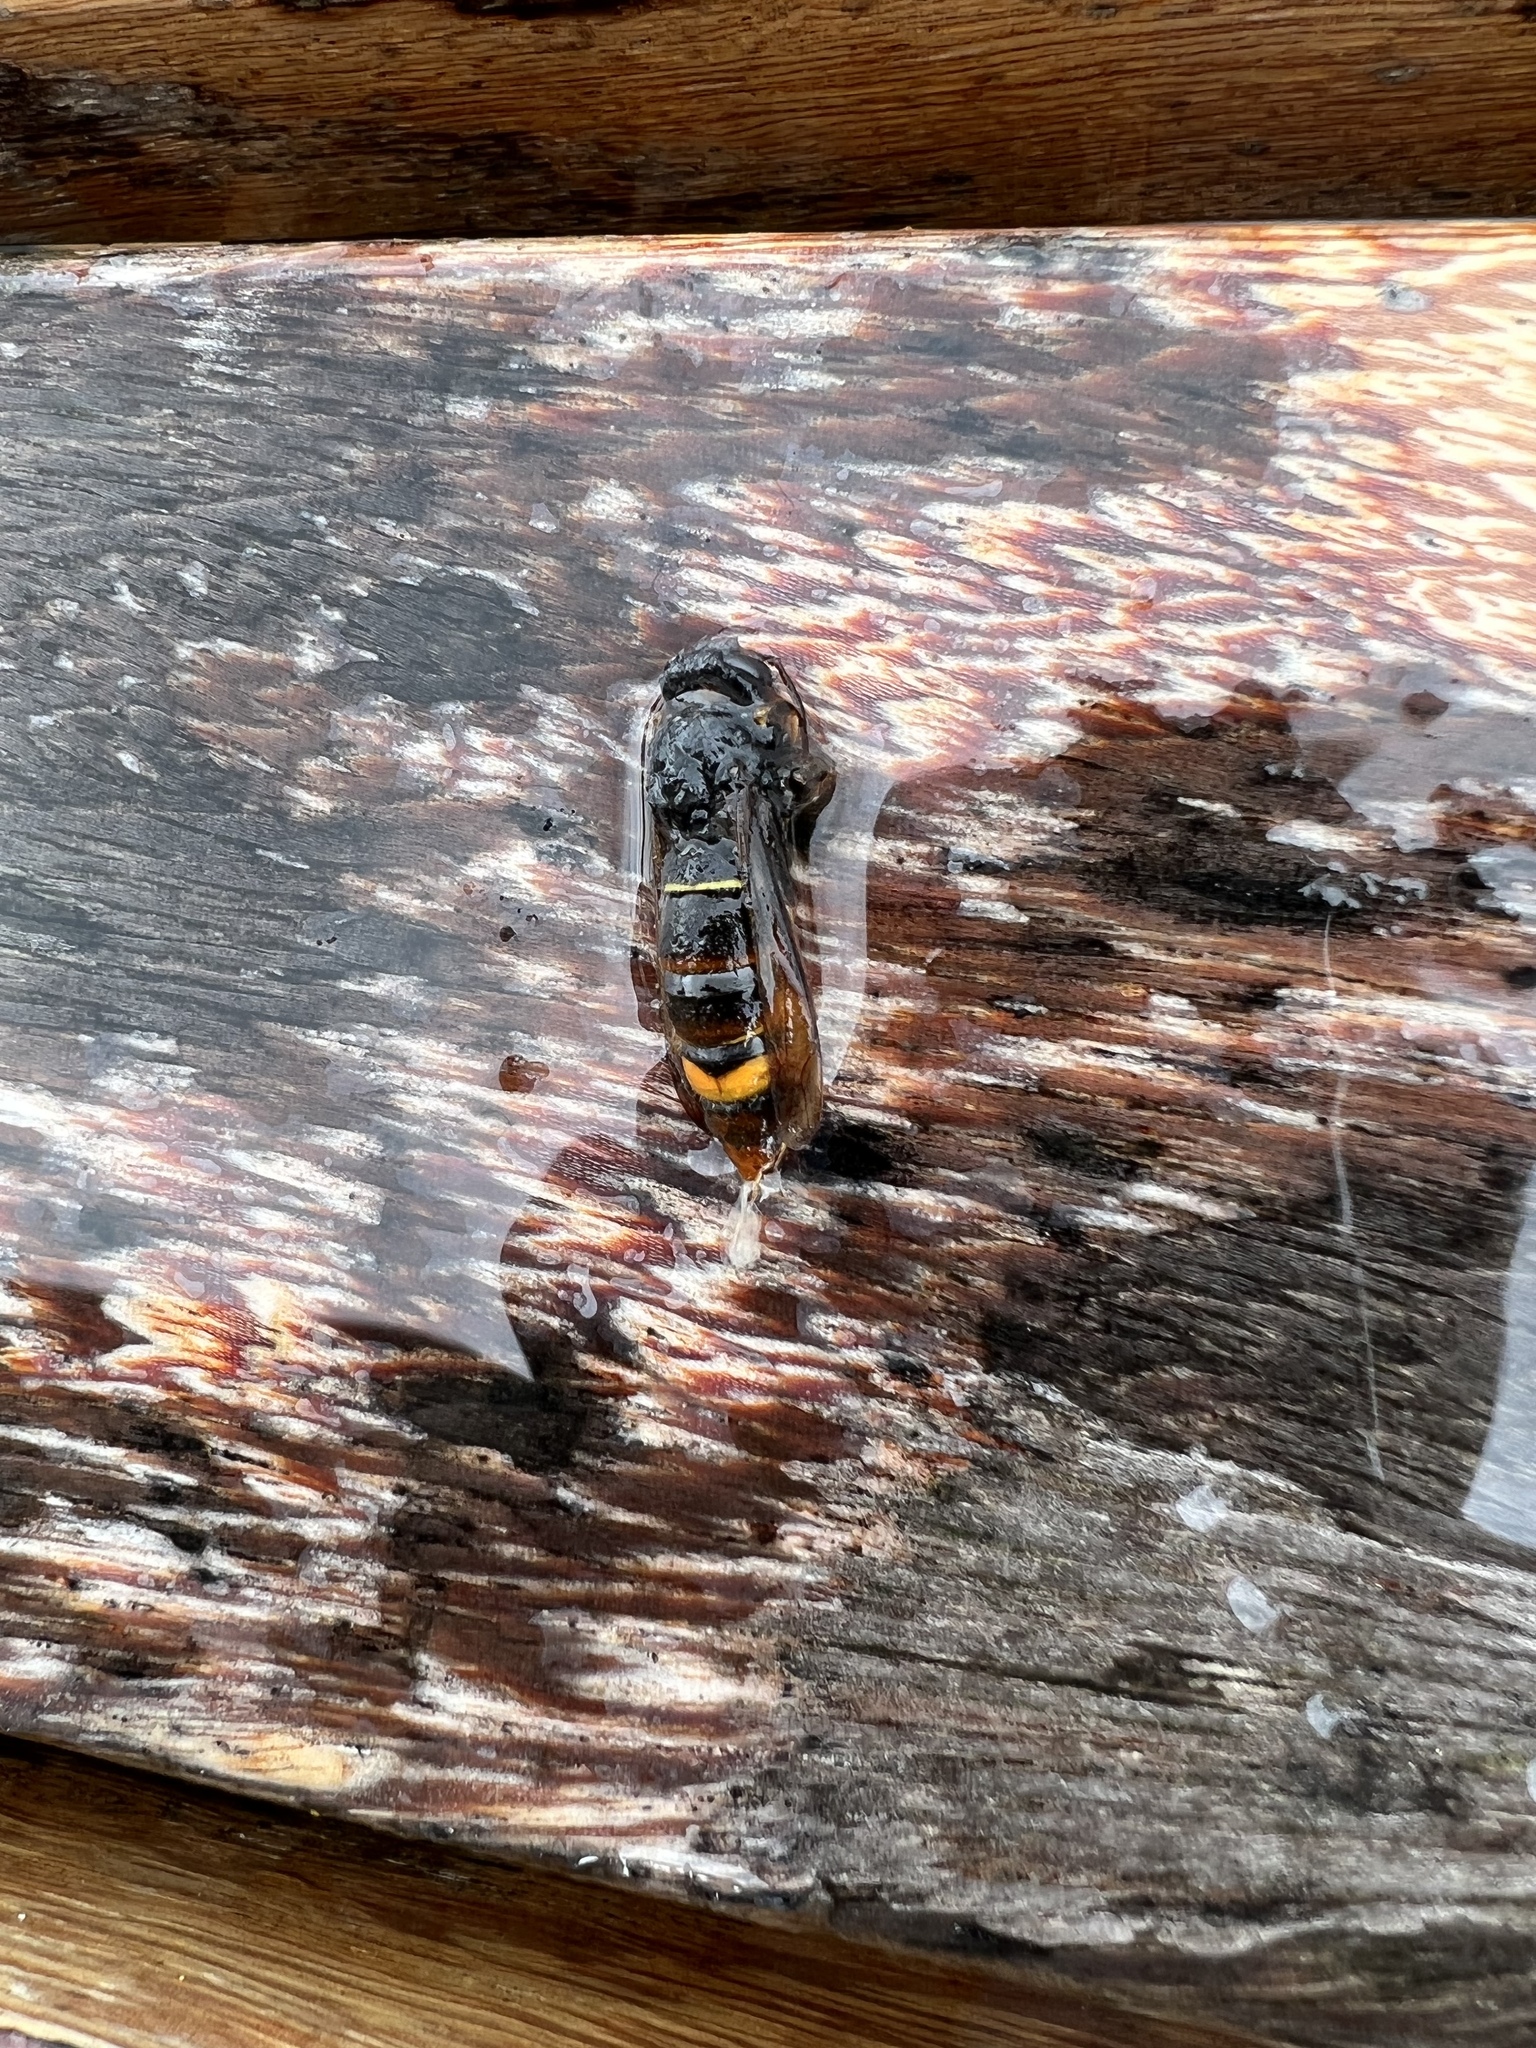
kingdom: Animalia
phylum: Arthropoda
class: Insecta
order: Hymenoptera
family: Vespidae
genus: Vespa
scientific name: Vespa velutina
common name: Asian hornet
